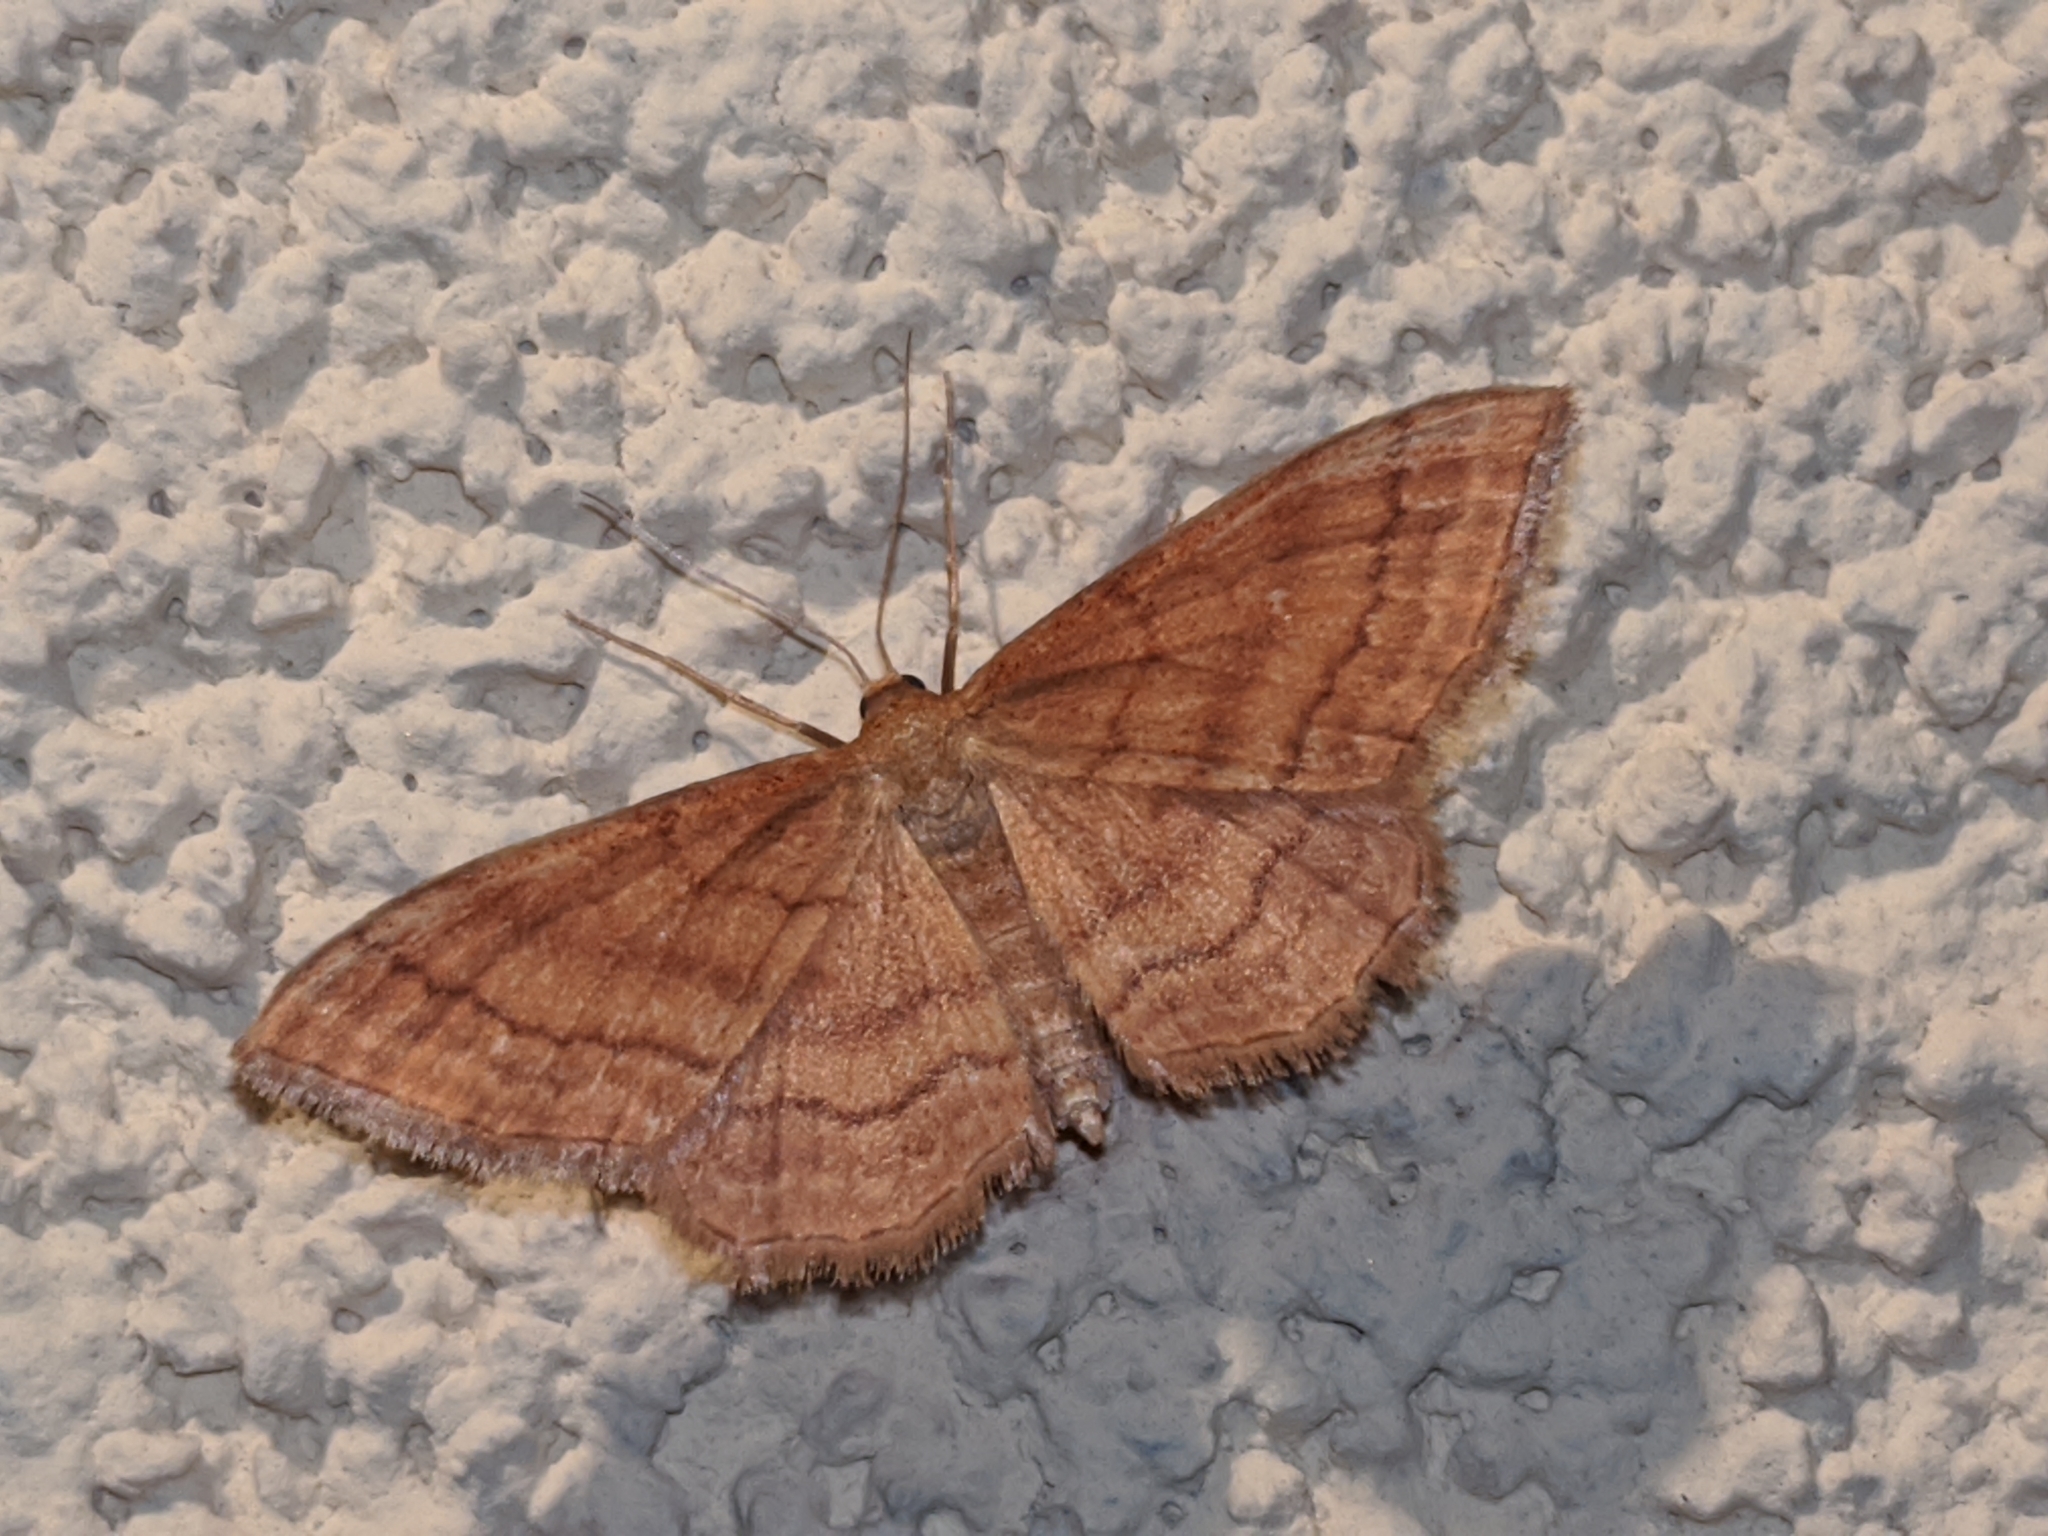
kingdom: Animalia
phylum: Arthropoda
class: Insecta
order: Lepidoptera
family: Geometridae
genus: Idaea
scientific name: Idaea ochrata
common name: Bright wave
